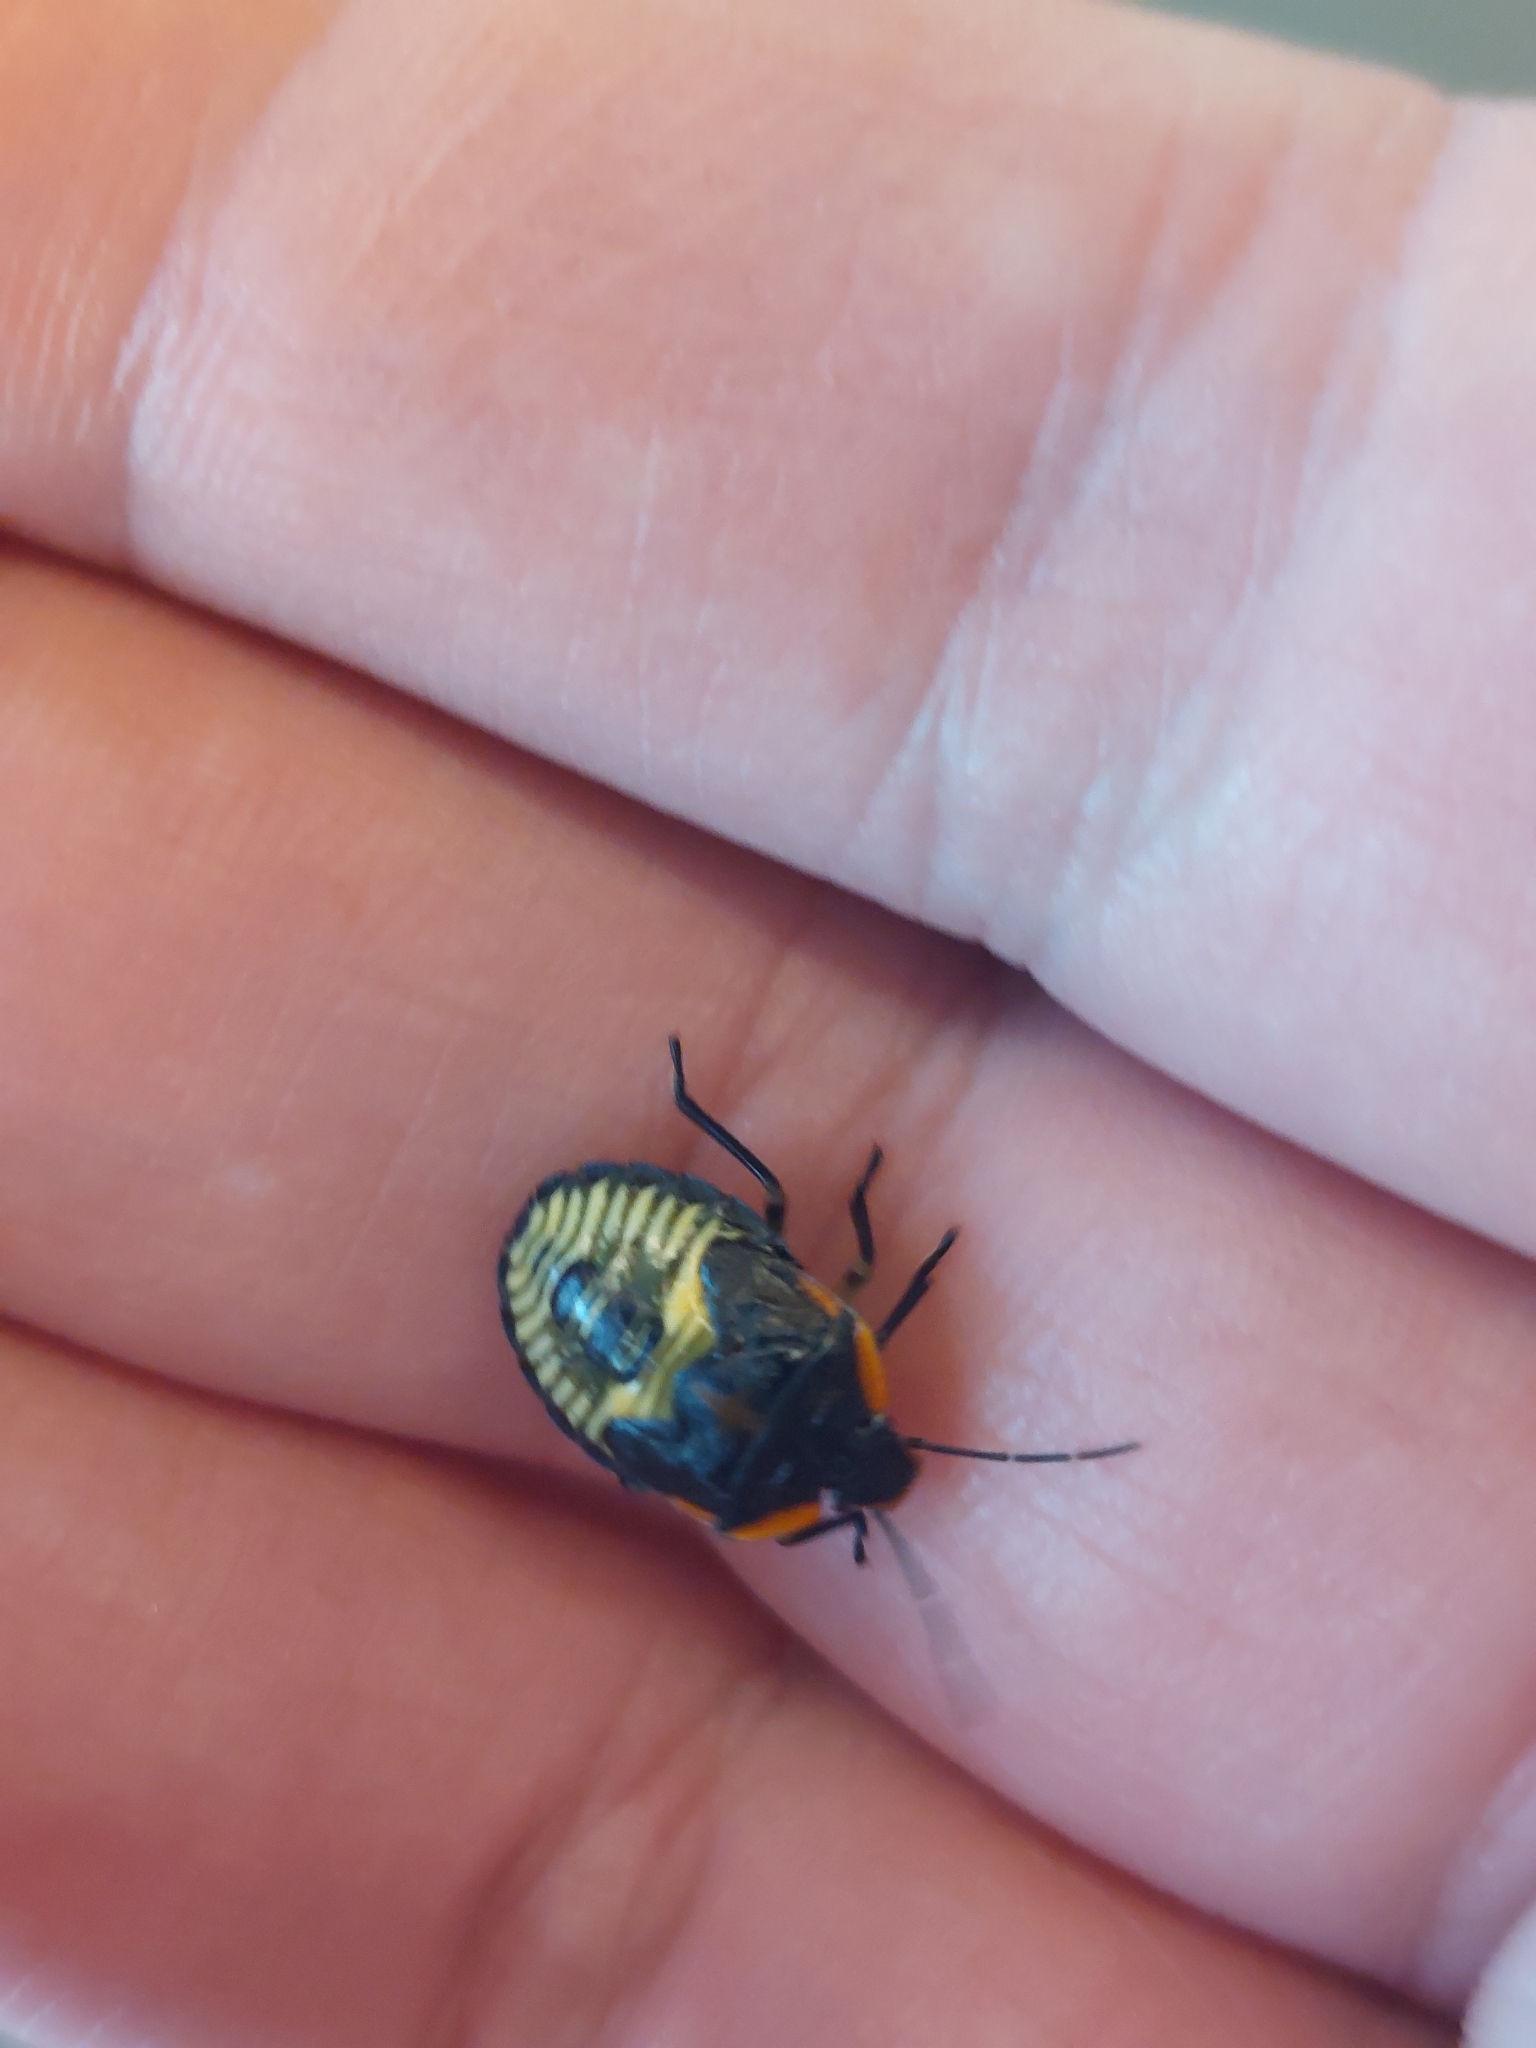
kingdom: Animalia
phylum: Arthropoda
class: Insecta
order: Hemiptera
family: Pentatomidae
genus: Chinavia
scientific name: Chinavia hilaris
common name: Green stink bug
